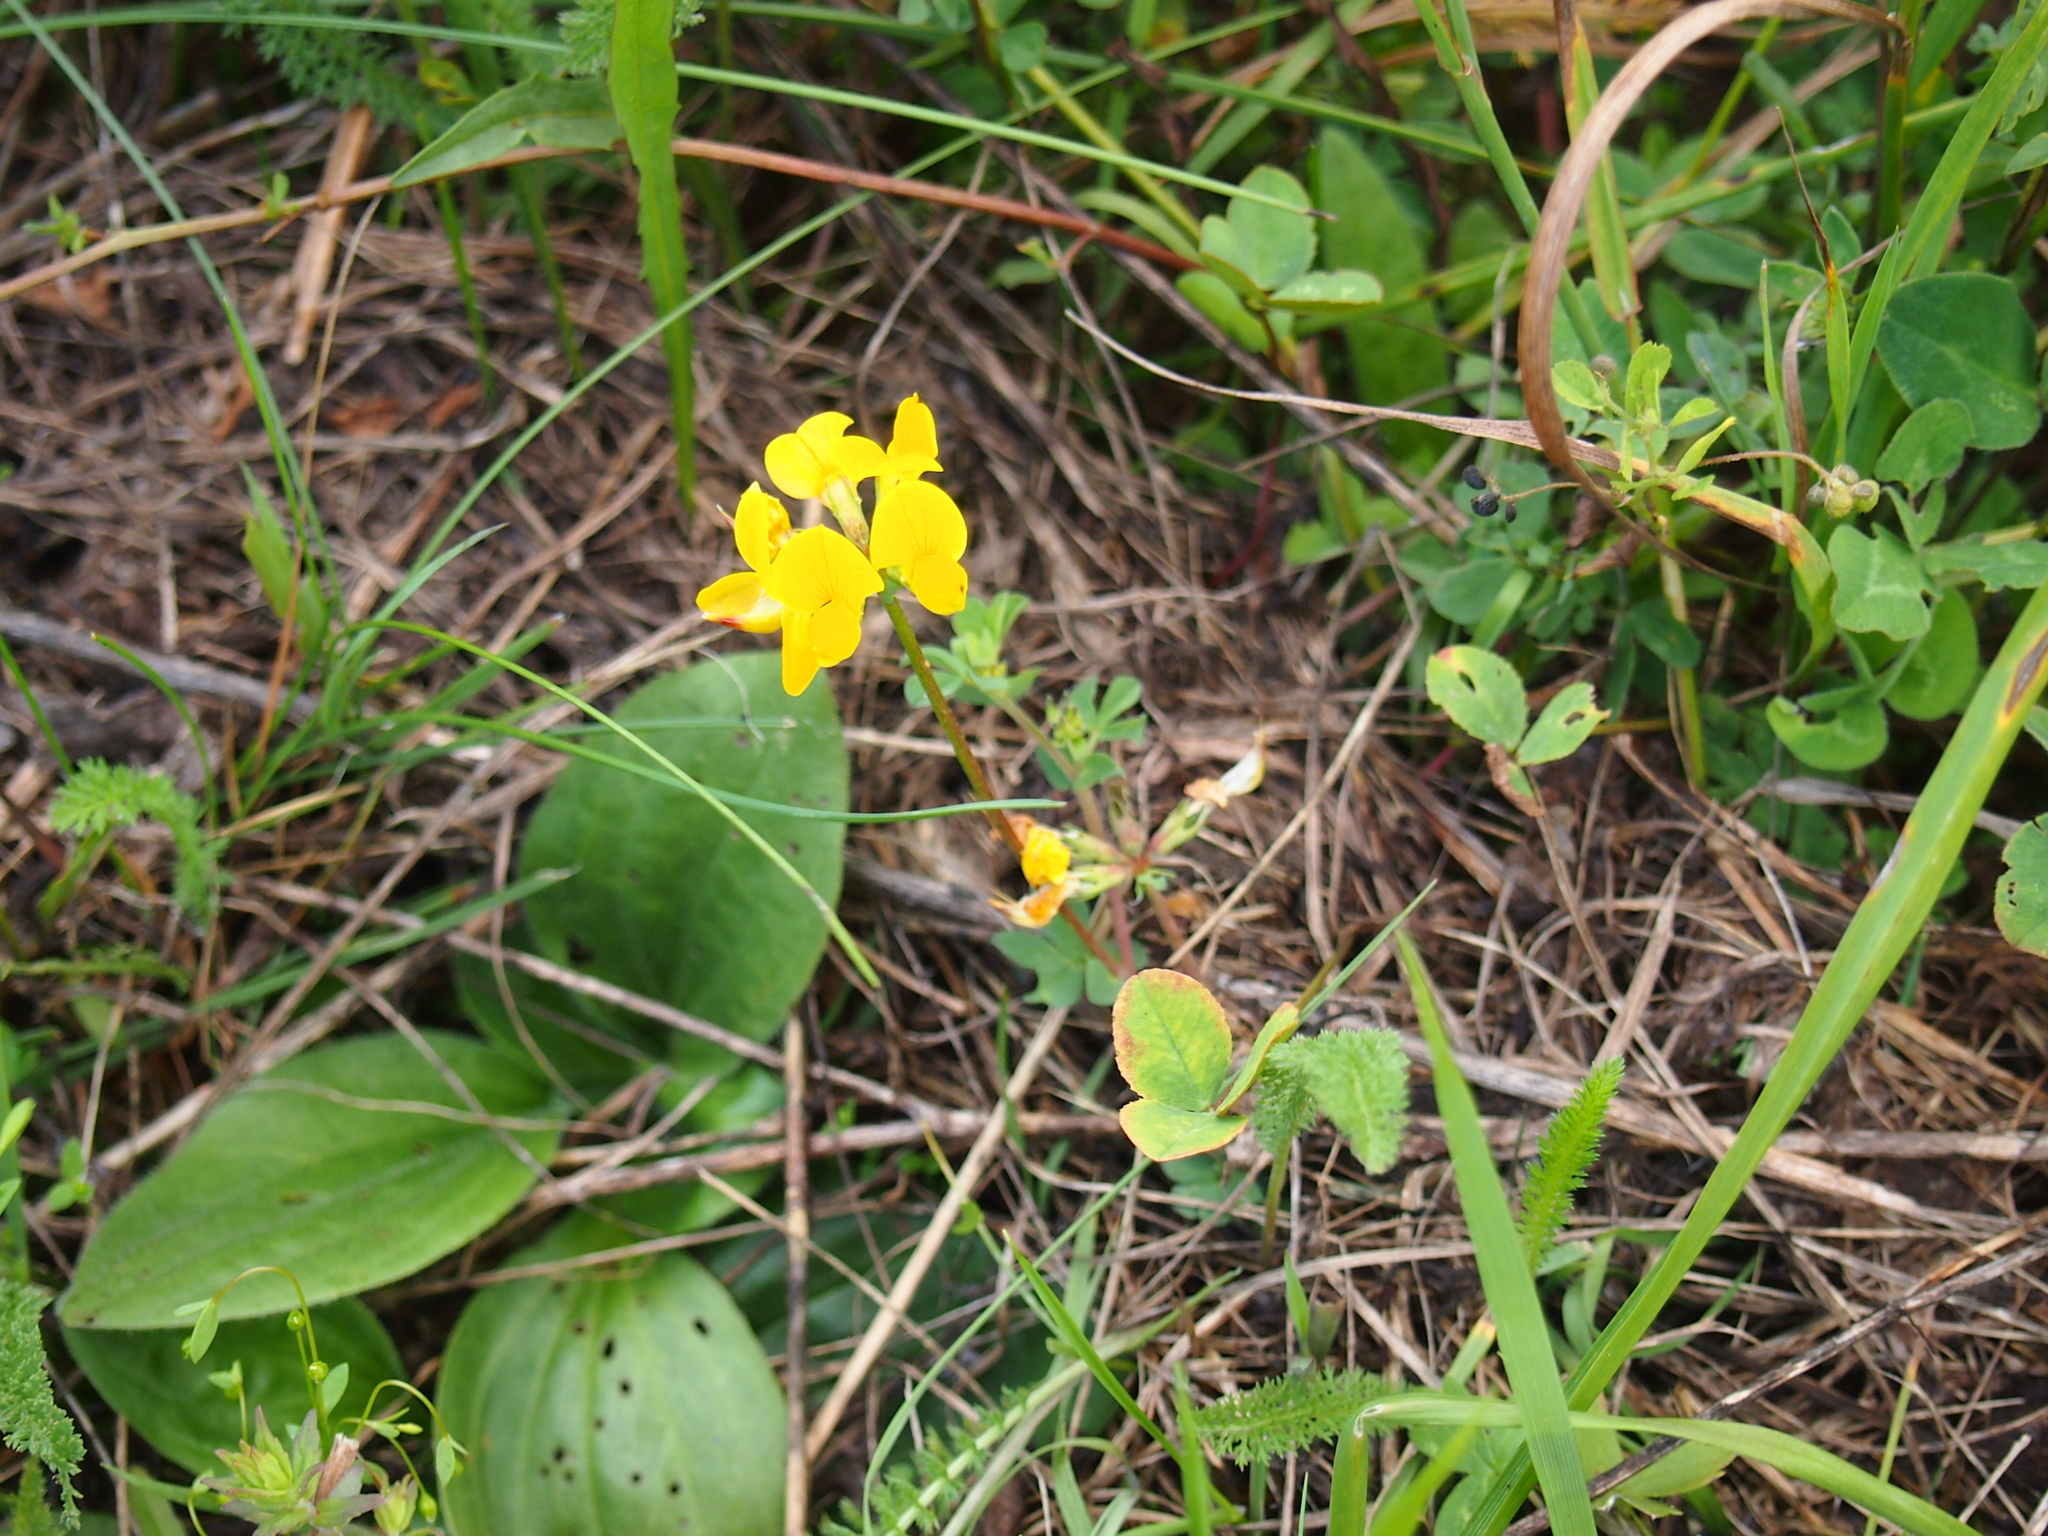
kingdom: Plantae
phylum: Tracheophyta
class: Magnoliopsida
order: Fabales
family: Fabaceae
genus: Lotus
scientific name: Lotus corniculatus
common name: Common bird's-foot-trefoil
